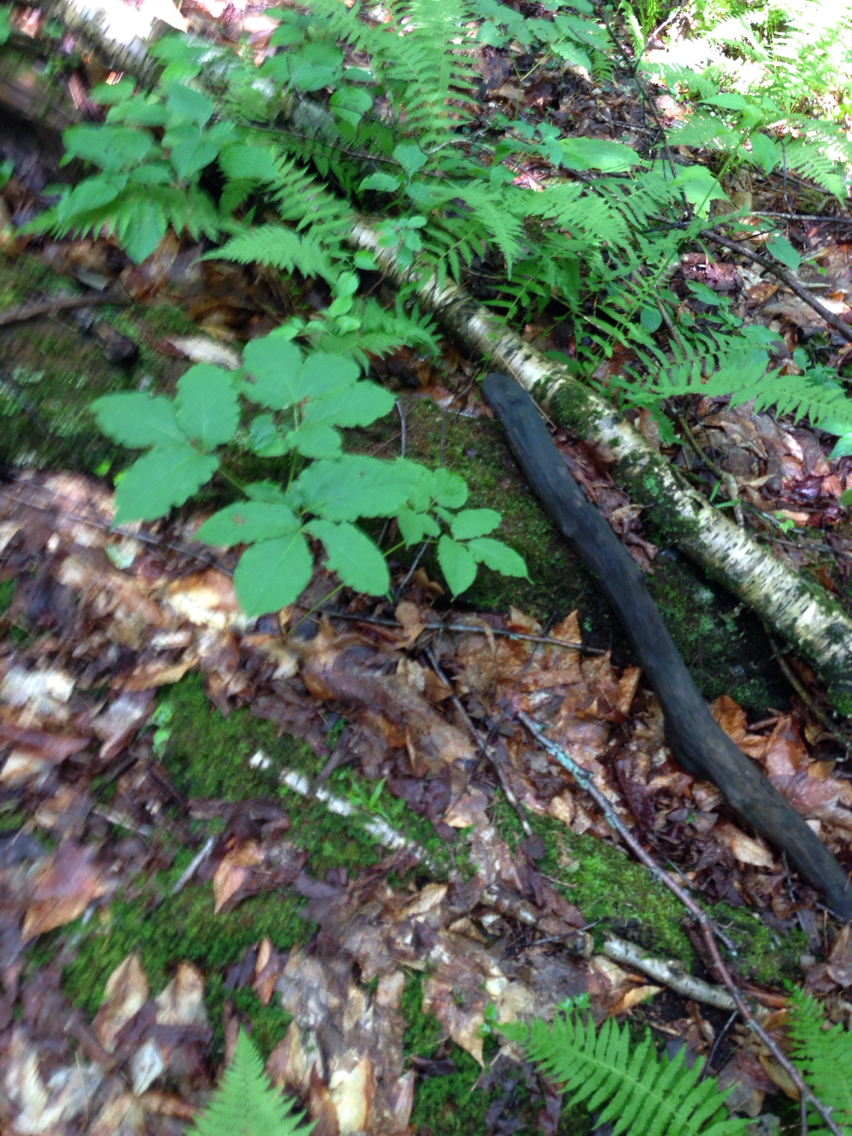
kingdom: Plantae
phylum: Tracheophyta
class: Magnoliopsida
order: Apiales
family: Araliaceae
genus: Aralia
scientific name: Aralia nudicaulis
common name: Wild sarsaparilla
